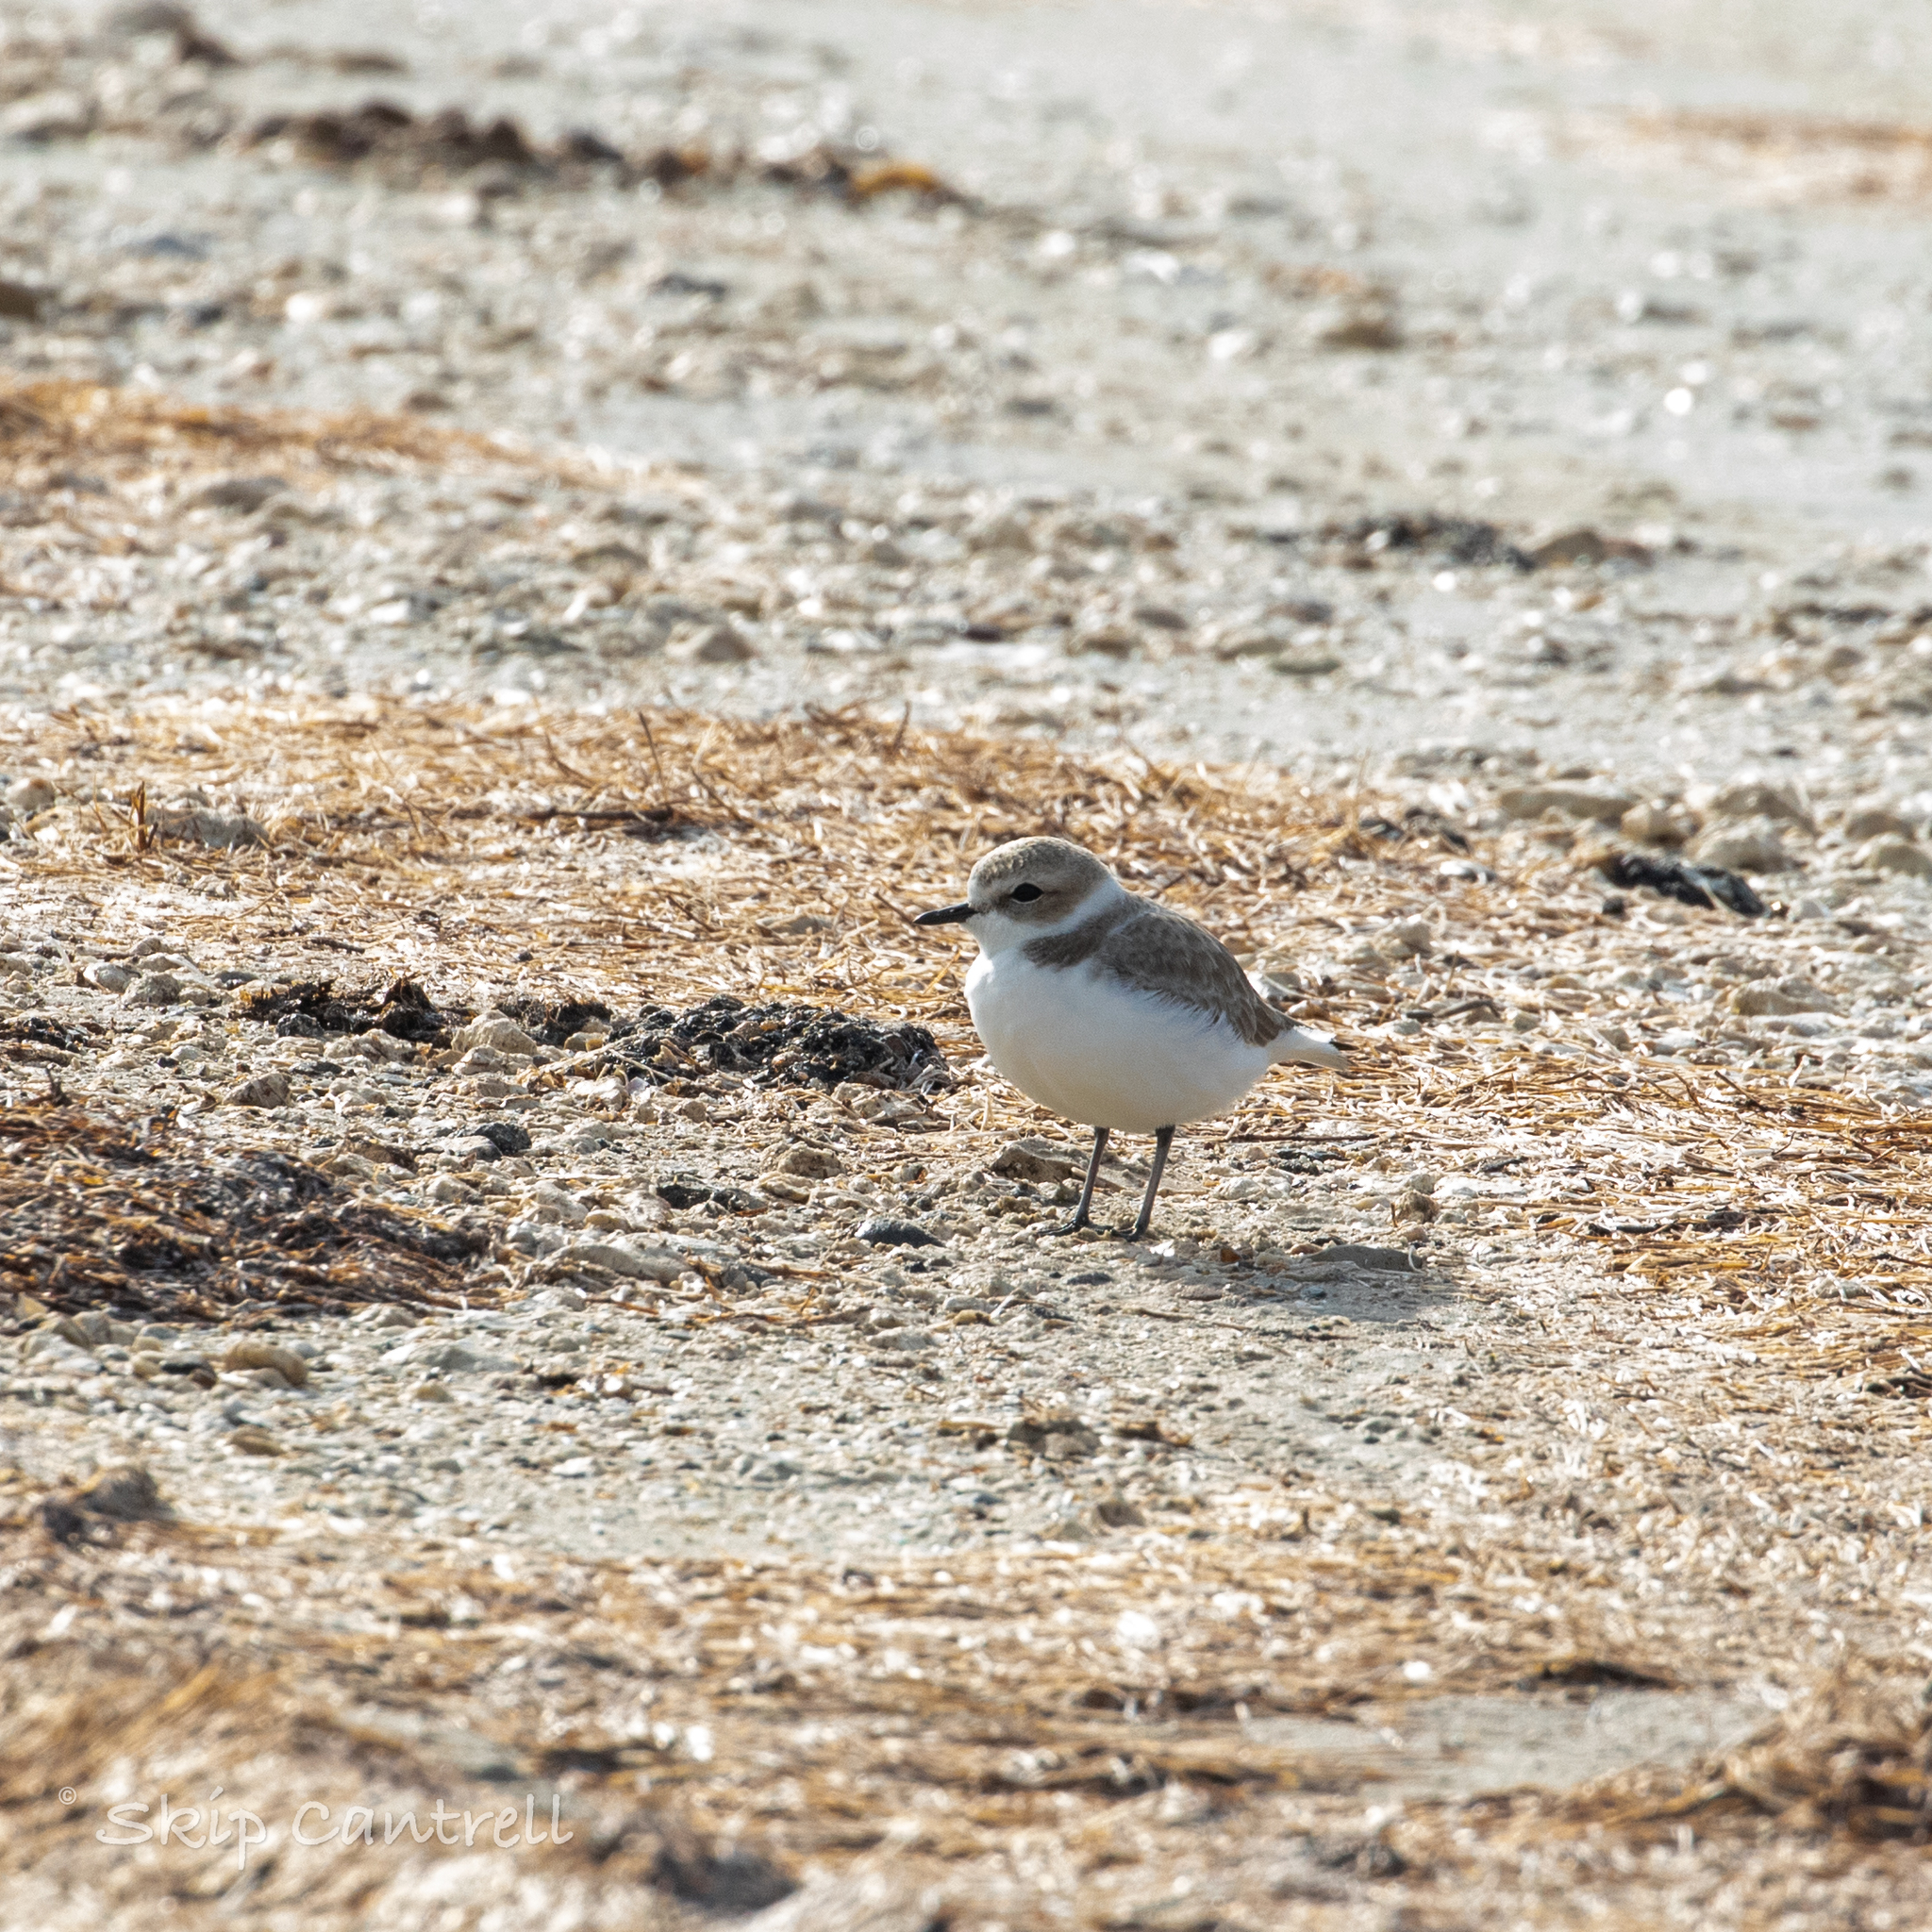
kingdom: Animalia
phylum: Chordata
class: Aves
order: Charadriiformes
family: Charadriidae
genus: Anarhynchus
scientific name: Anarhynchus
